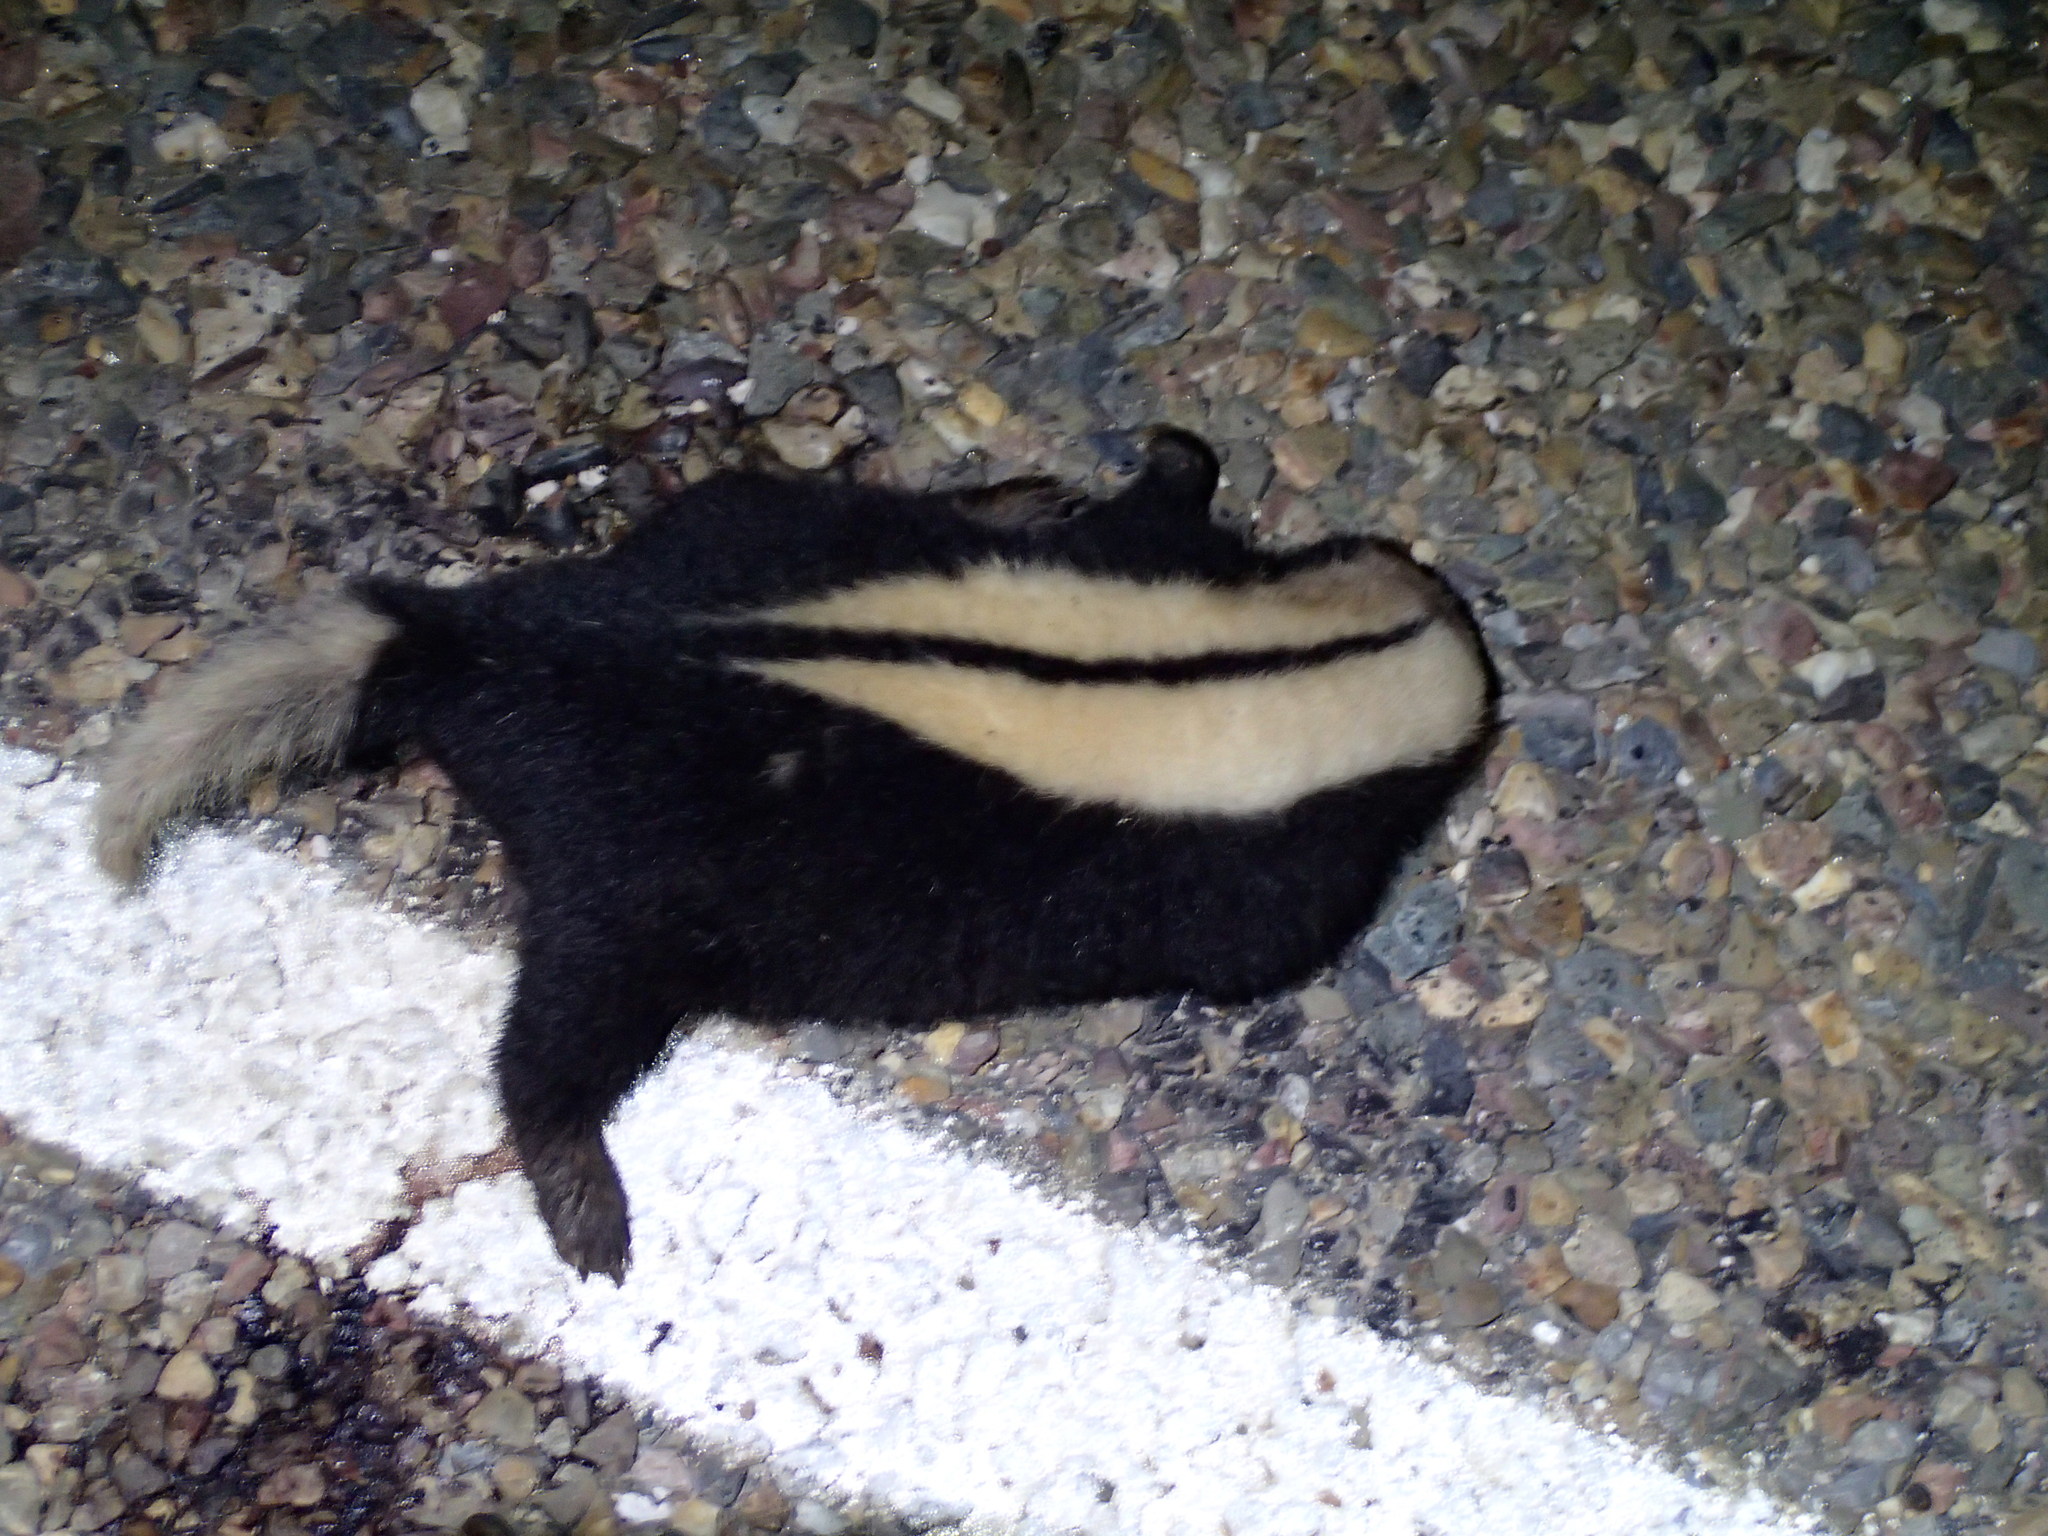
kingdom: Animalia
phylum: Chordata
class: Mammalia
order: Carnivora
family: Mephitidae
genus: Conepatus
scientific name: Conepatus semistriatus
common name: Striped hog-nosed skunk
